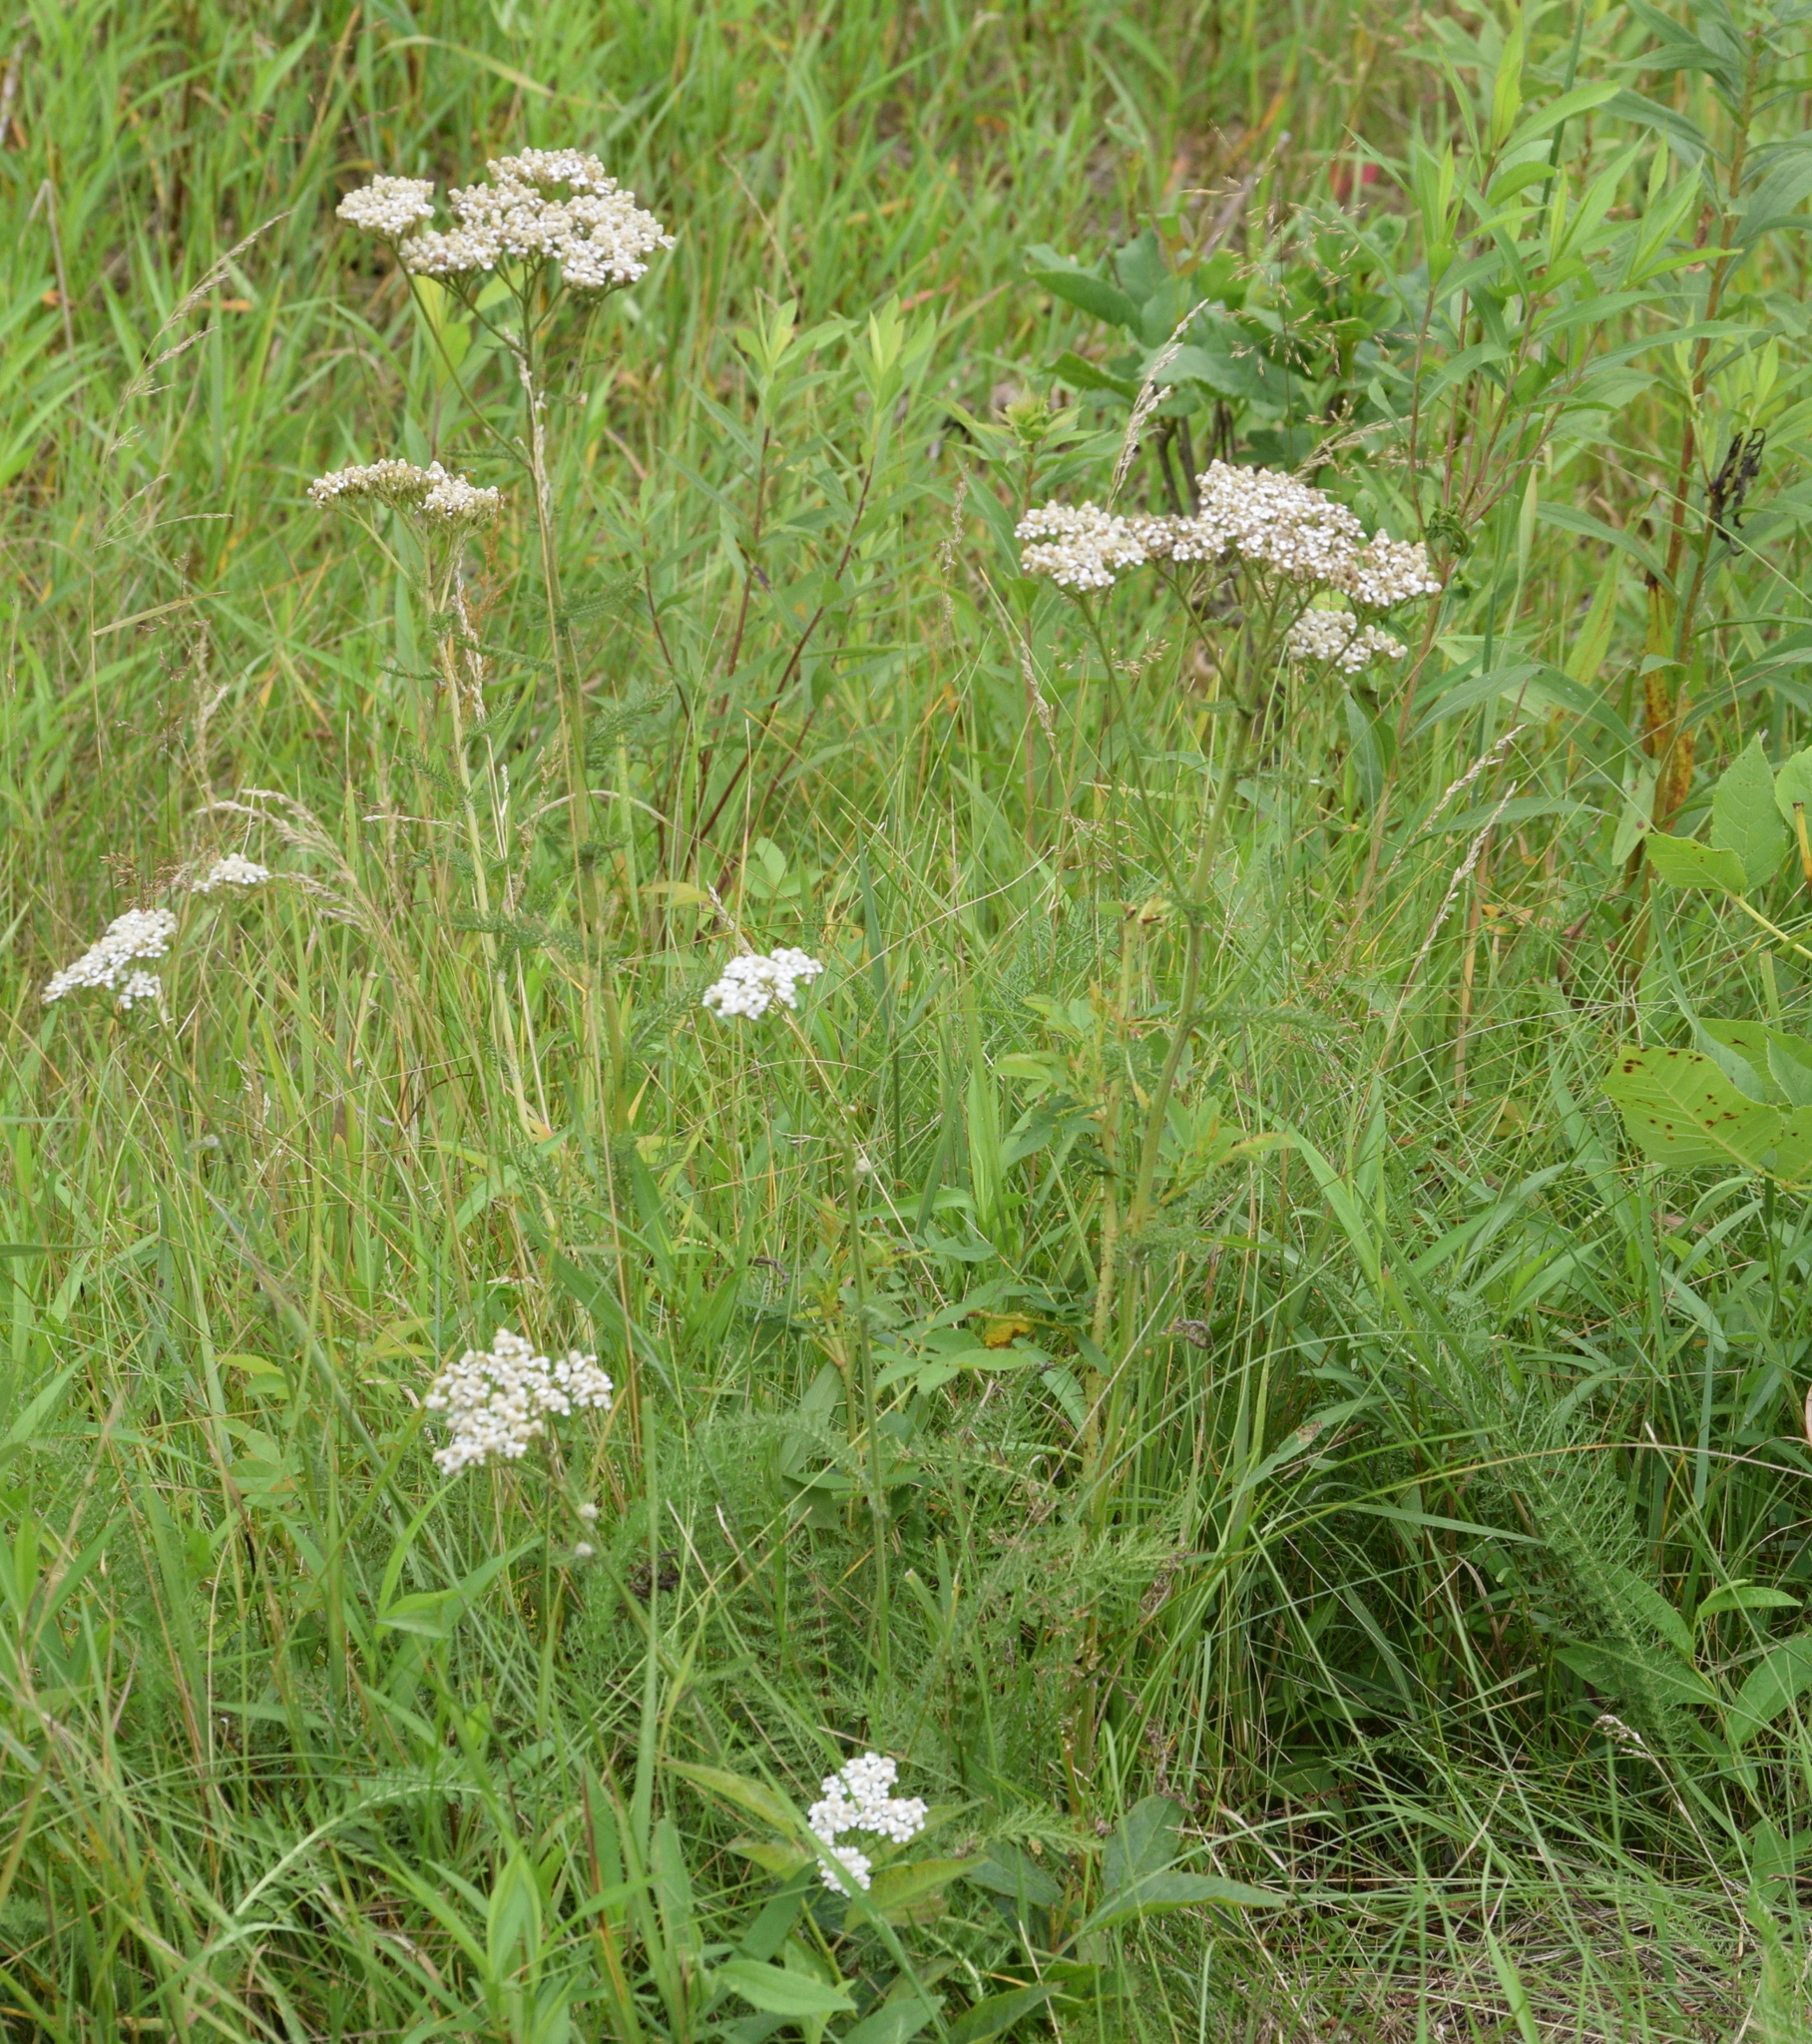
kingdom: Plantae
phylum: Tracheophyta
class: Magnoliopsida
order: Asterales
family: Asteraceae
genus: Achillea
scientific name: Achillea millefolium
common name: Yarrow
